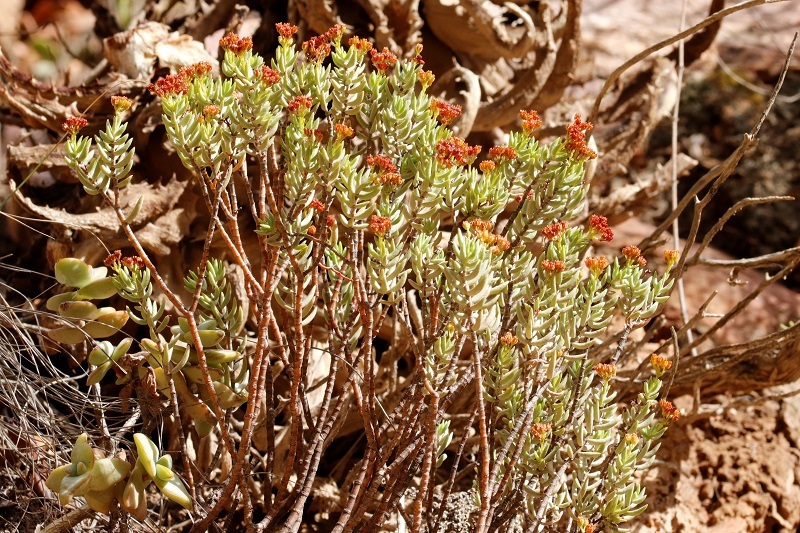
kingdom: Plantae
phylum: Tracheophyta
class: Magnoliopsida
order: Saxifragales
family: Crassulaceae
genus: Crassula
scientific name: Crassula tetragona
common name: Pygmyweed
